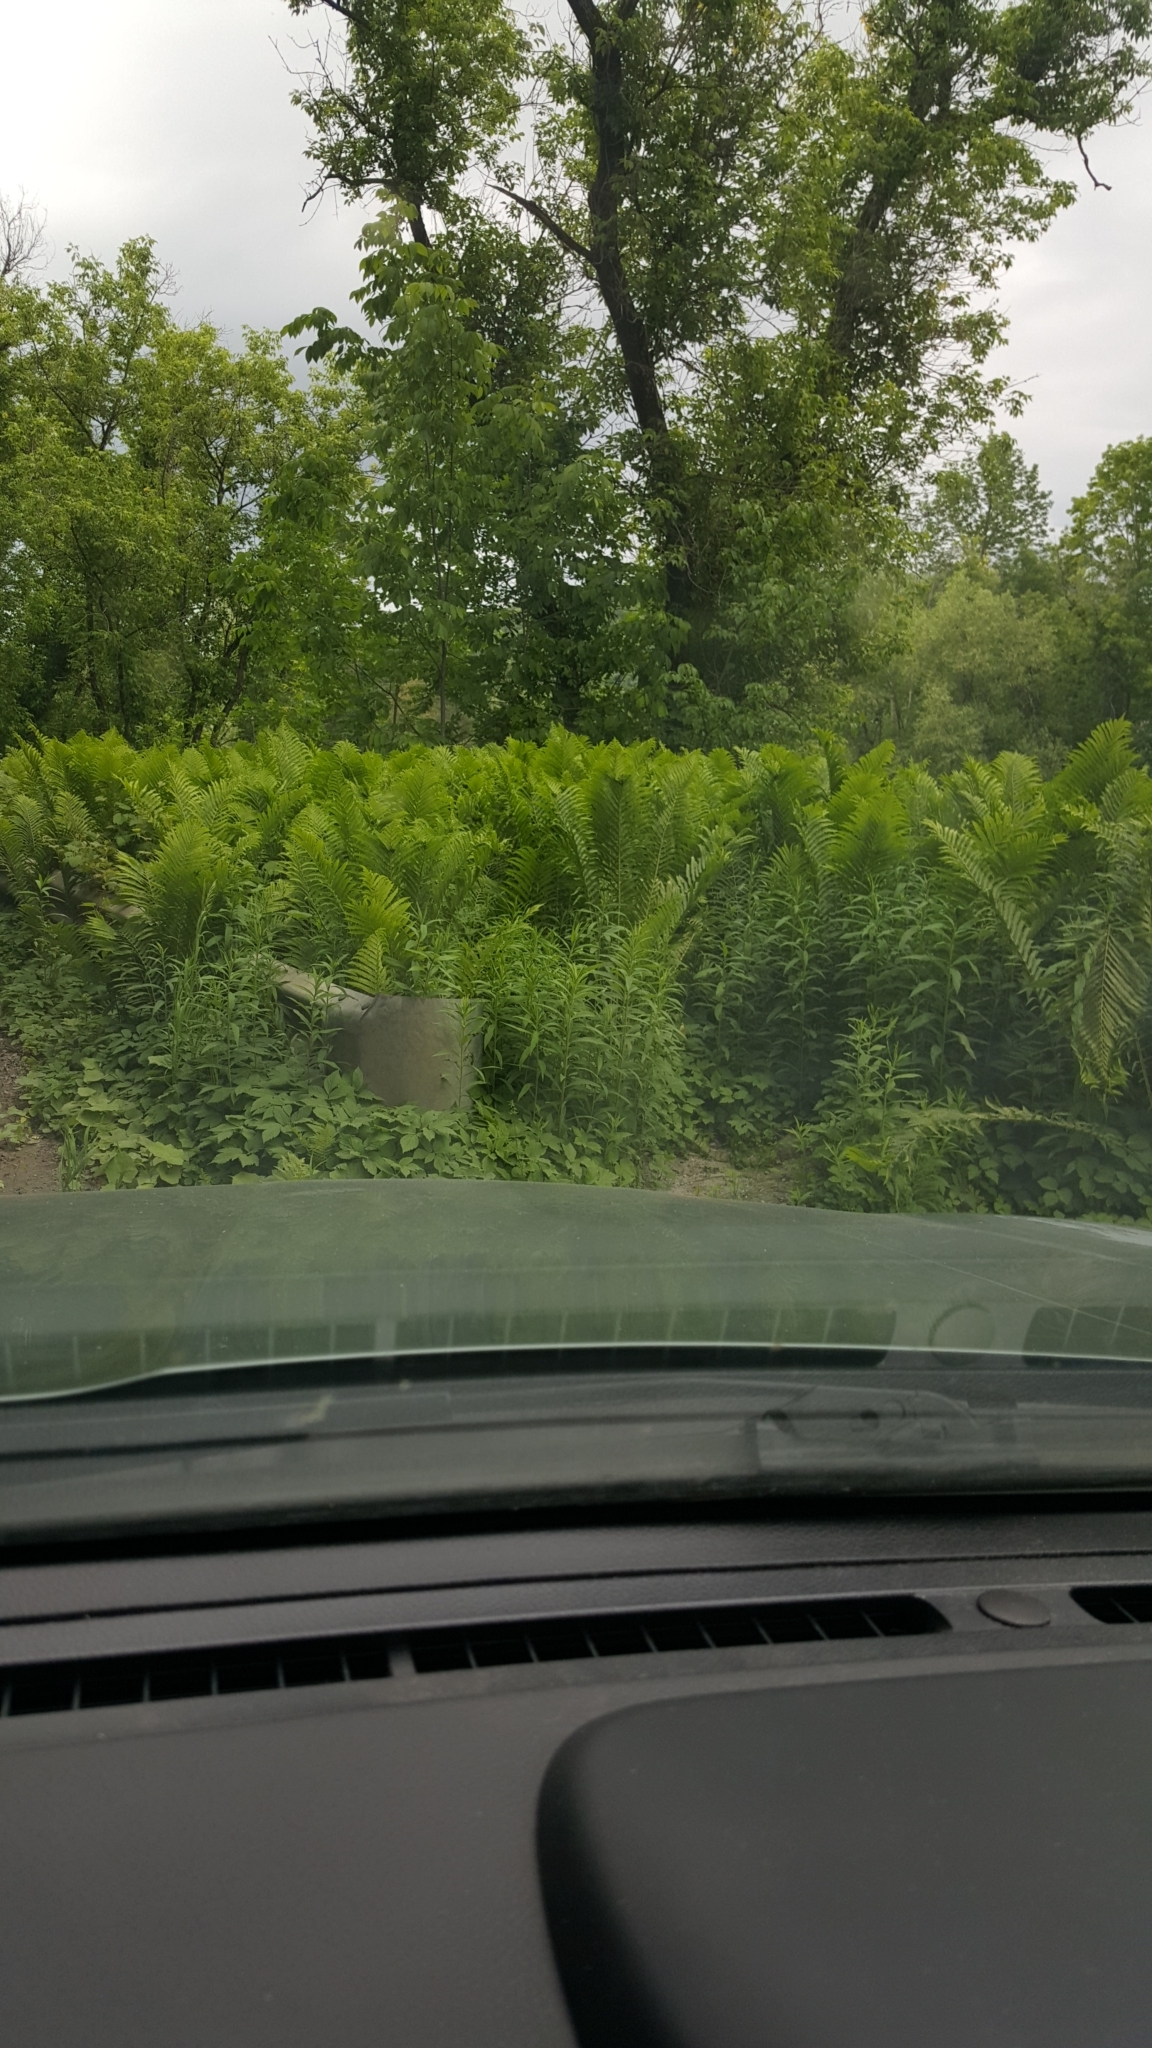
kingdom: Plantae
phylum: Tracheophyta
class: Polypodiopsida
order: Polypodiales
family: Onocleaceae
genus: Matteuccia
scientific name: Matteuccia struthiopteris
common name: Ostrich fern
